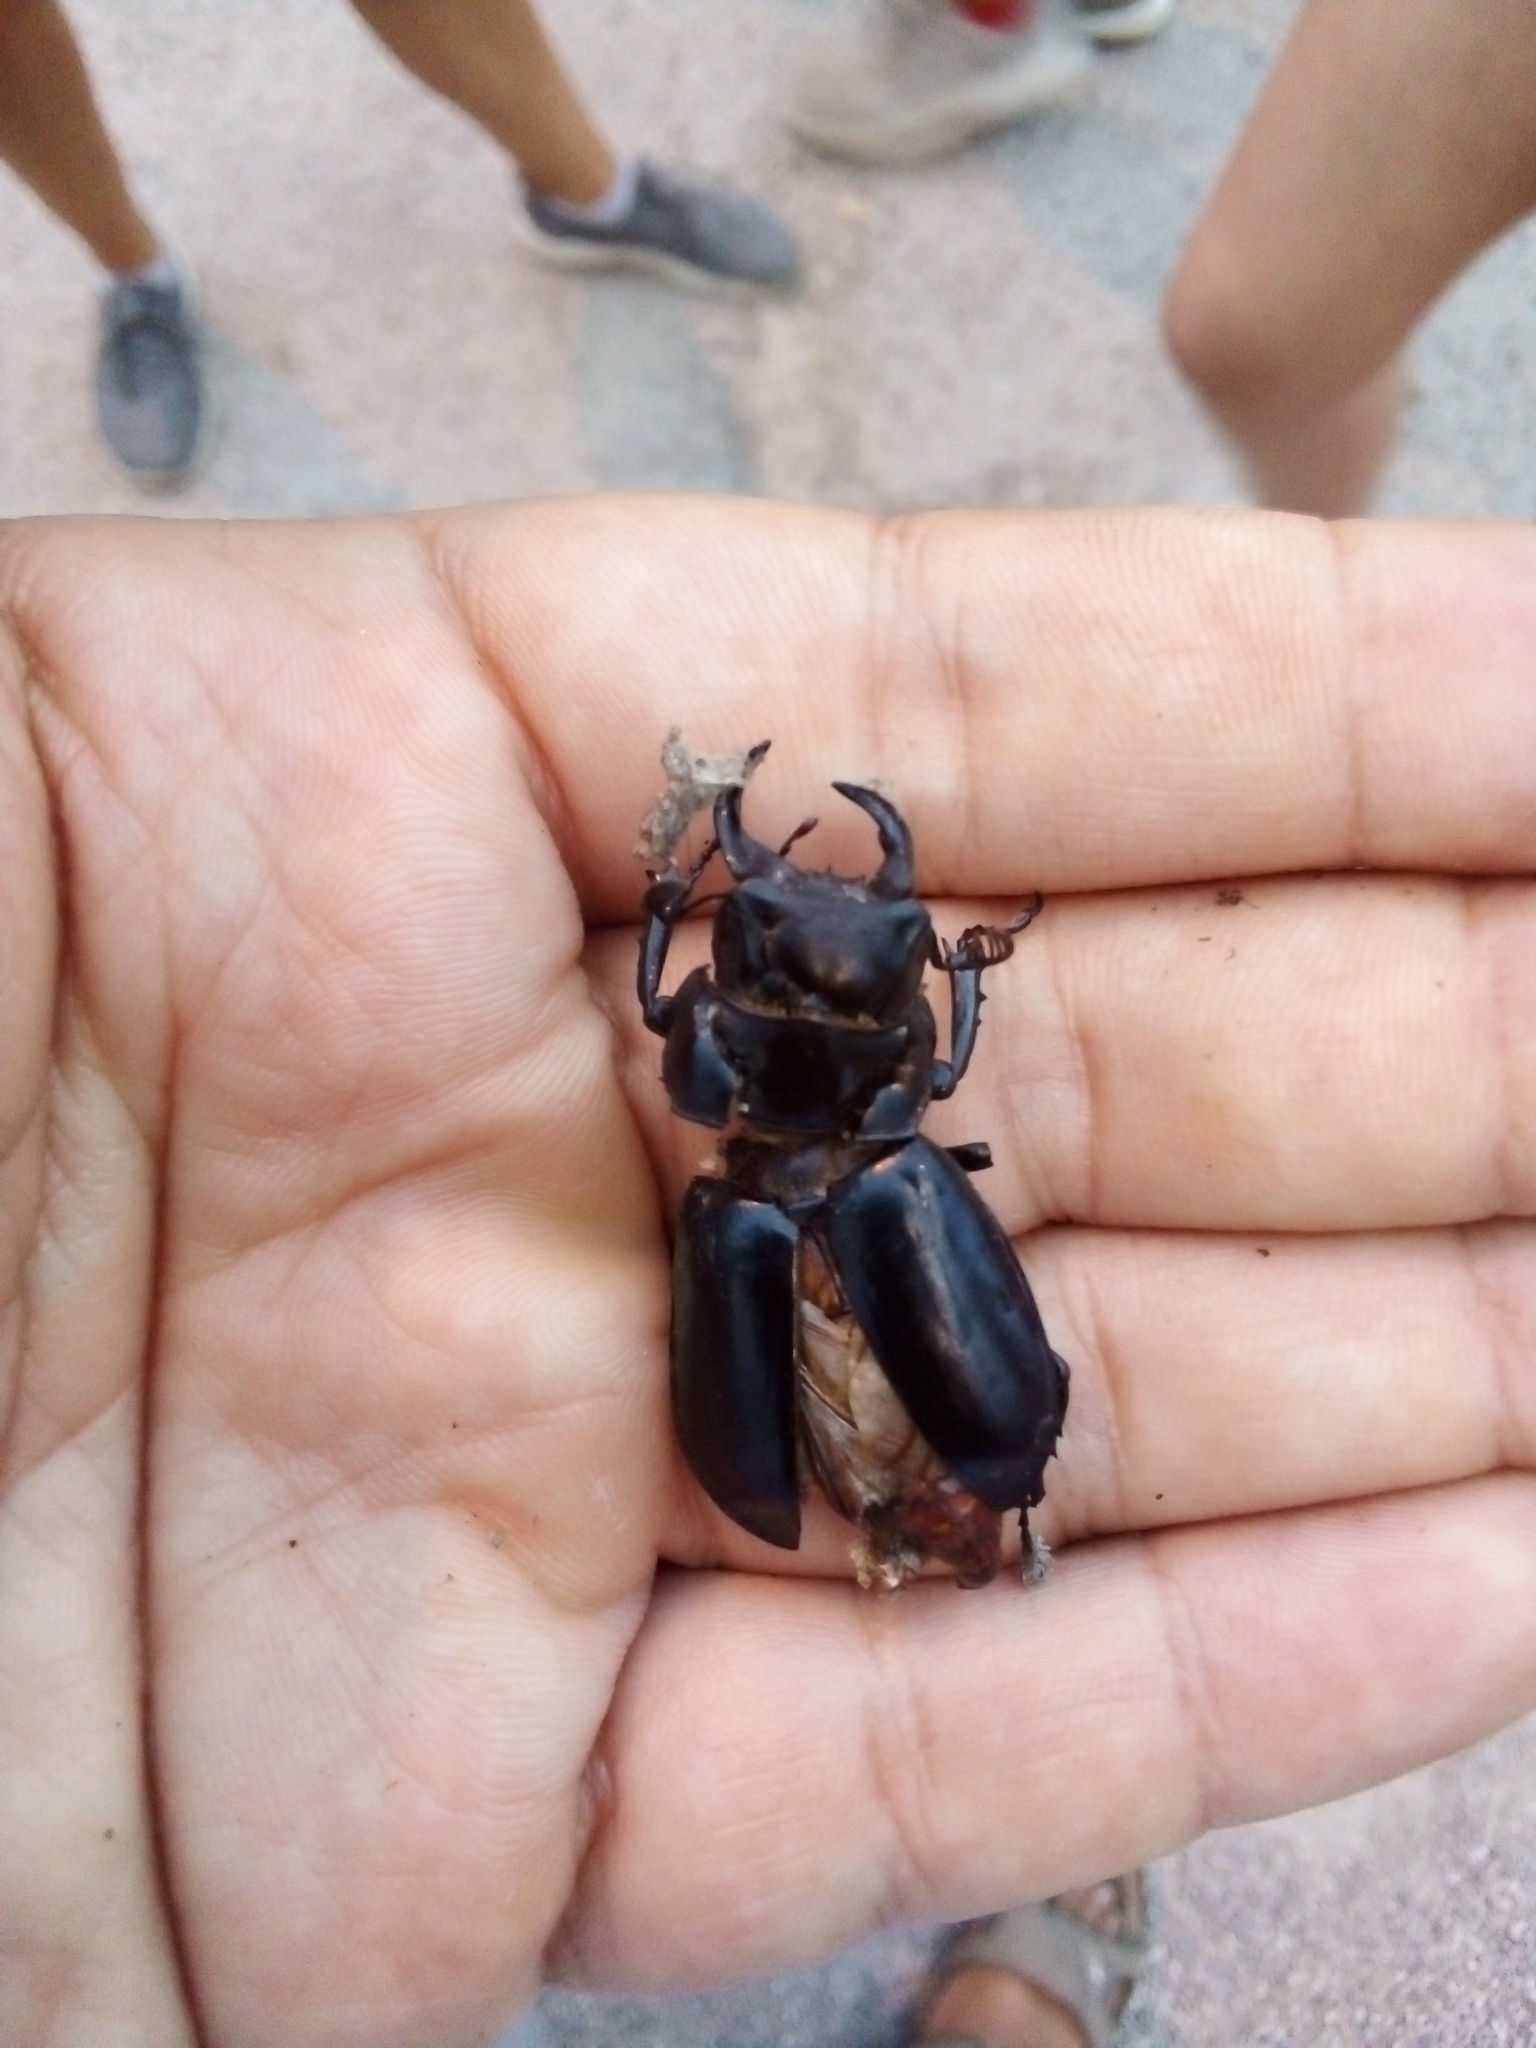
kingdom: Animalia
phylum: Arthropoda
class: Insecta
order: Coleoptera
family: Lucanidae
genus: Lucanus
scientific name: Lucanus barbarossa
